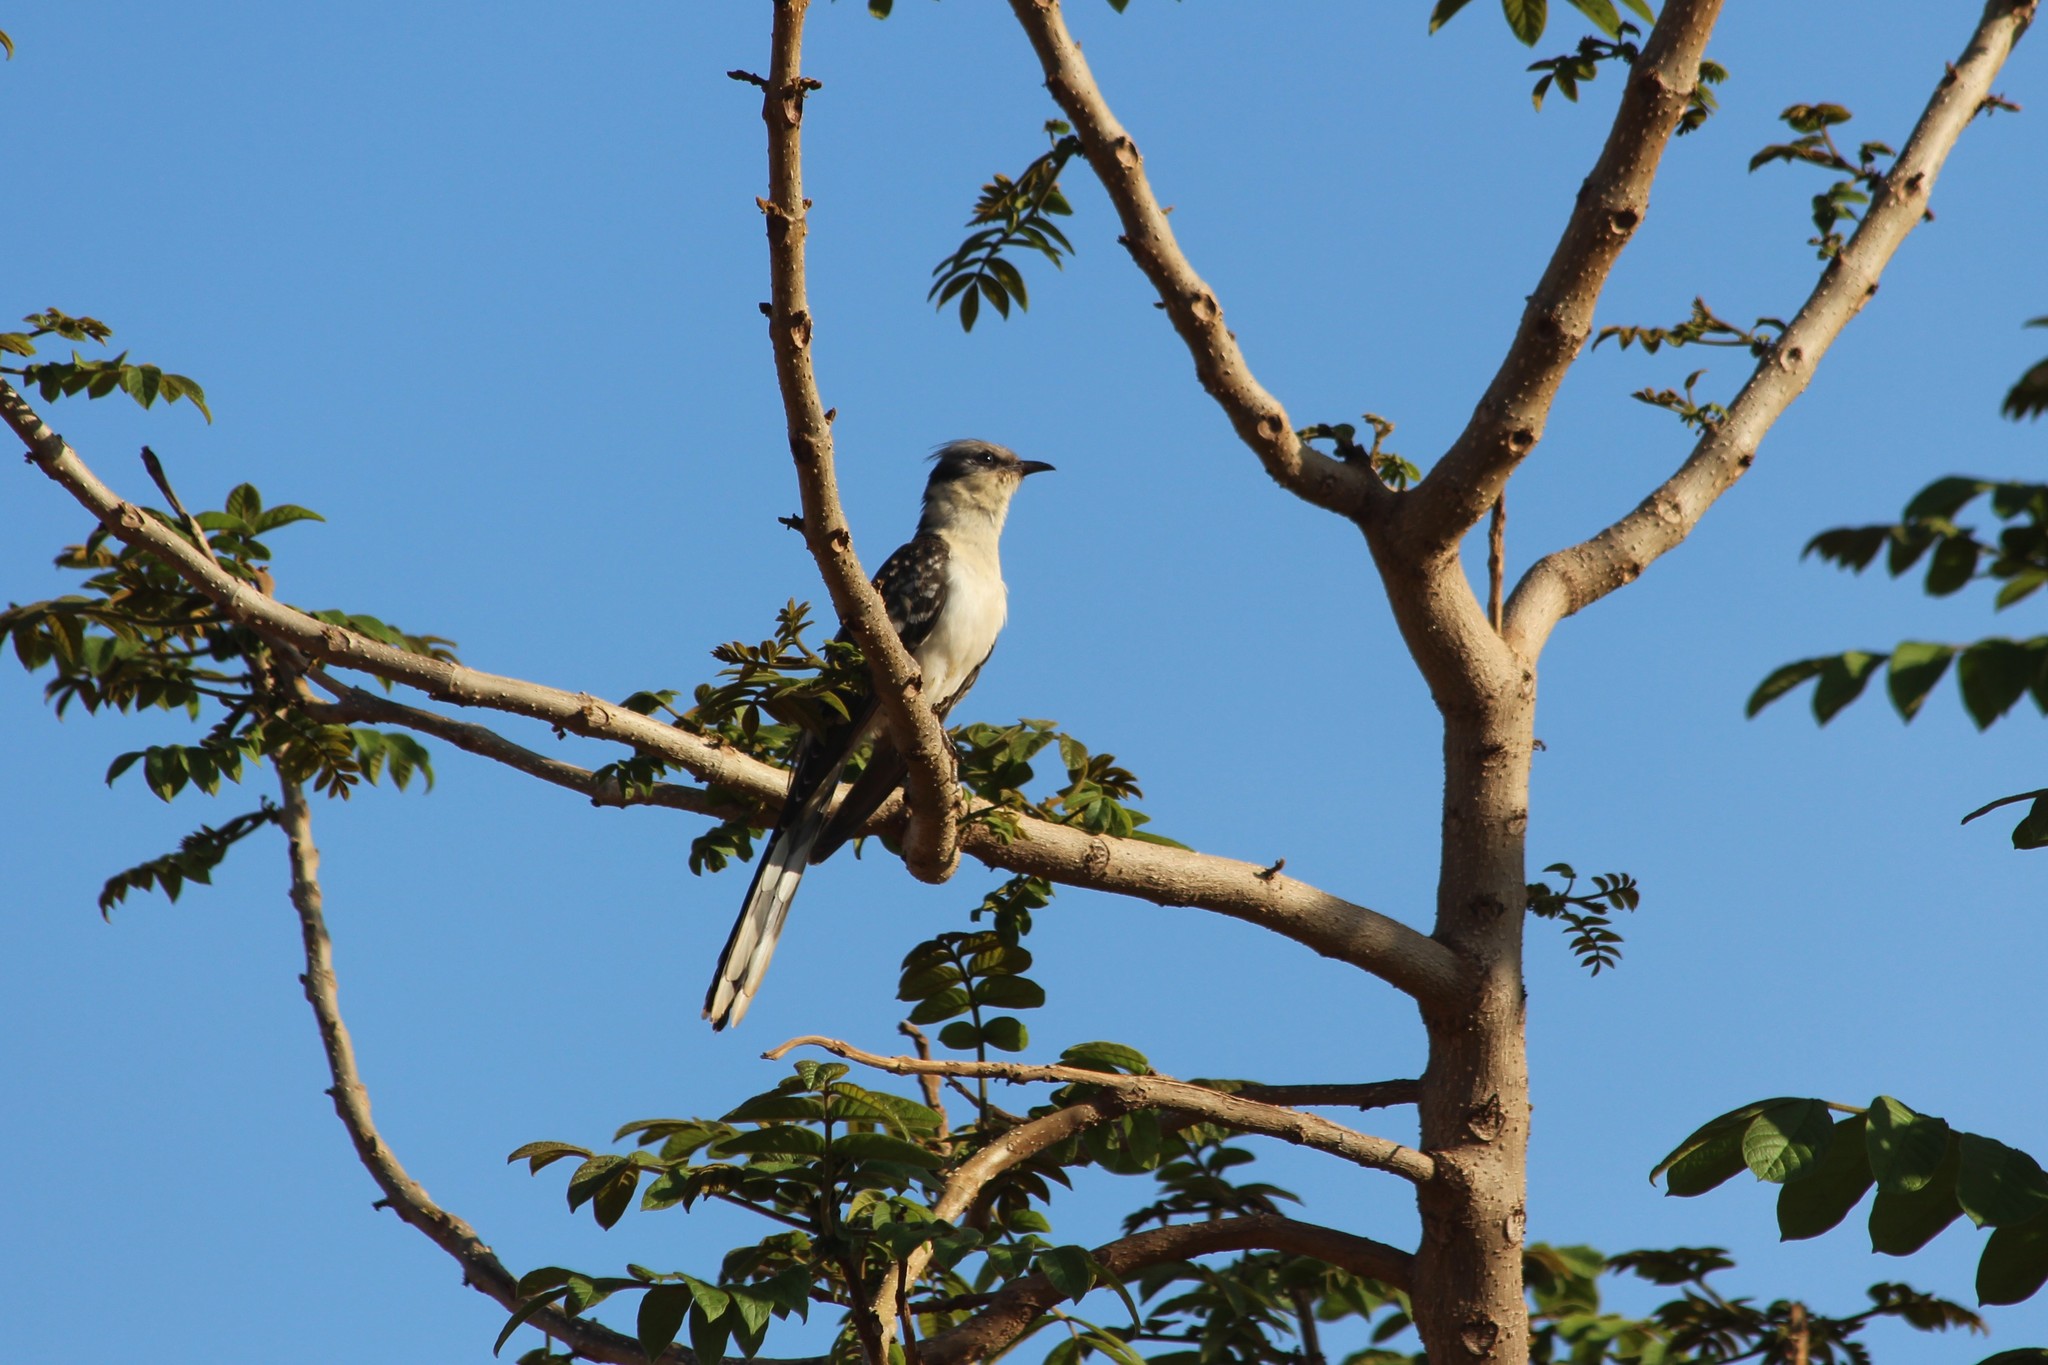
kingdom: Animalia
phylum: Chordata
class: Aves
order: Cuculiformes
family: Cuculidae
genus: Clamator
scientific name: Clamator glandarius
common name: Great spotted cuckoo
